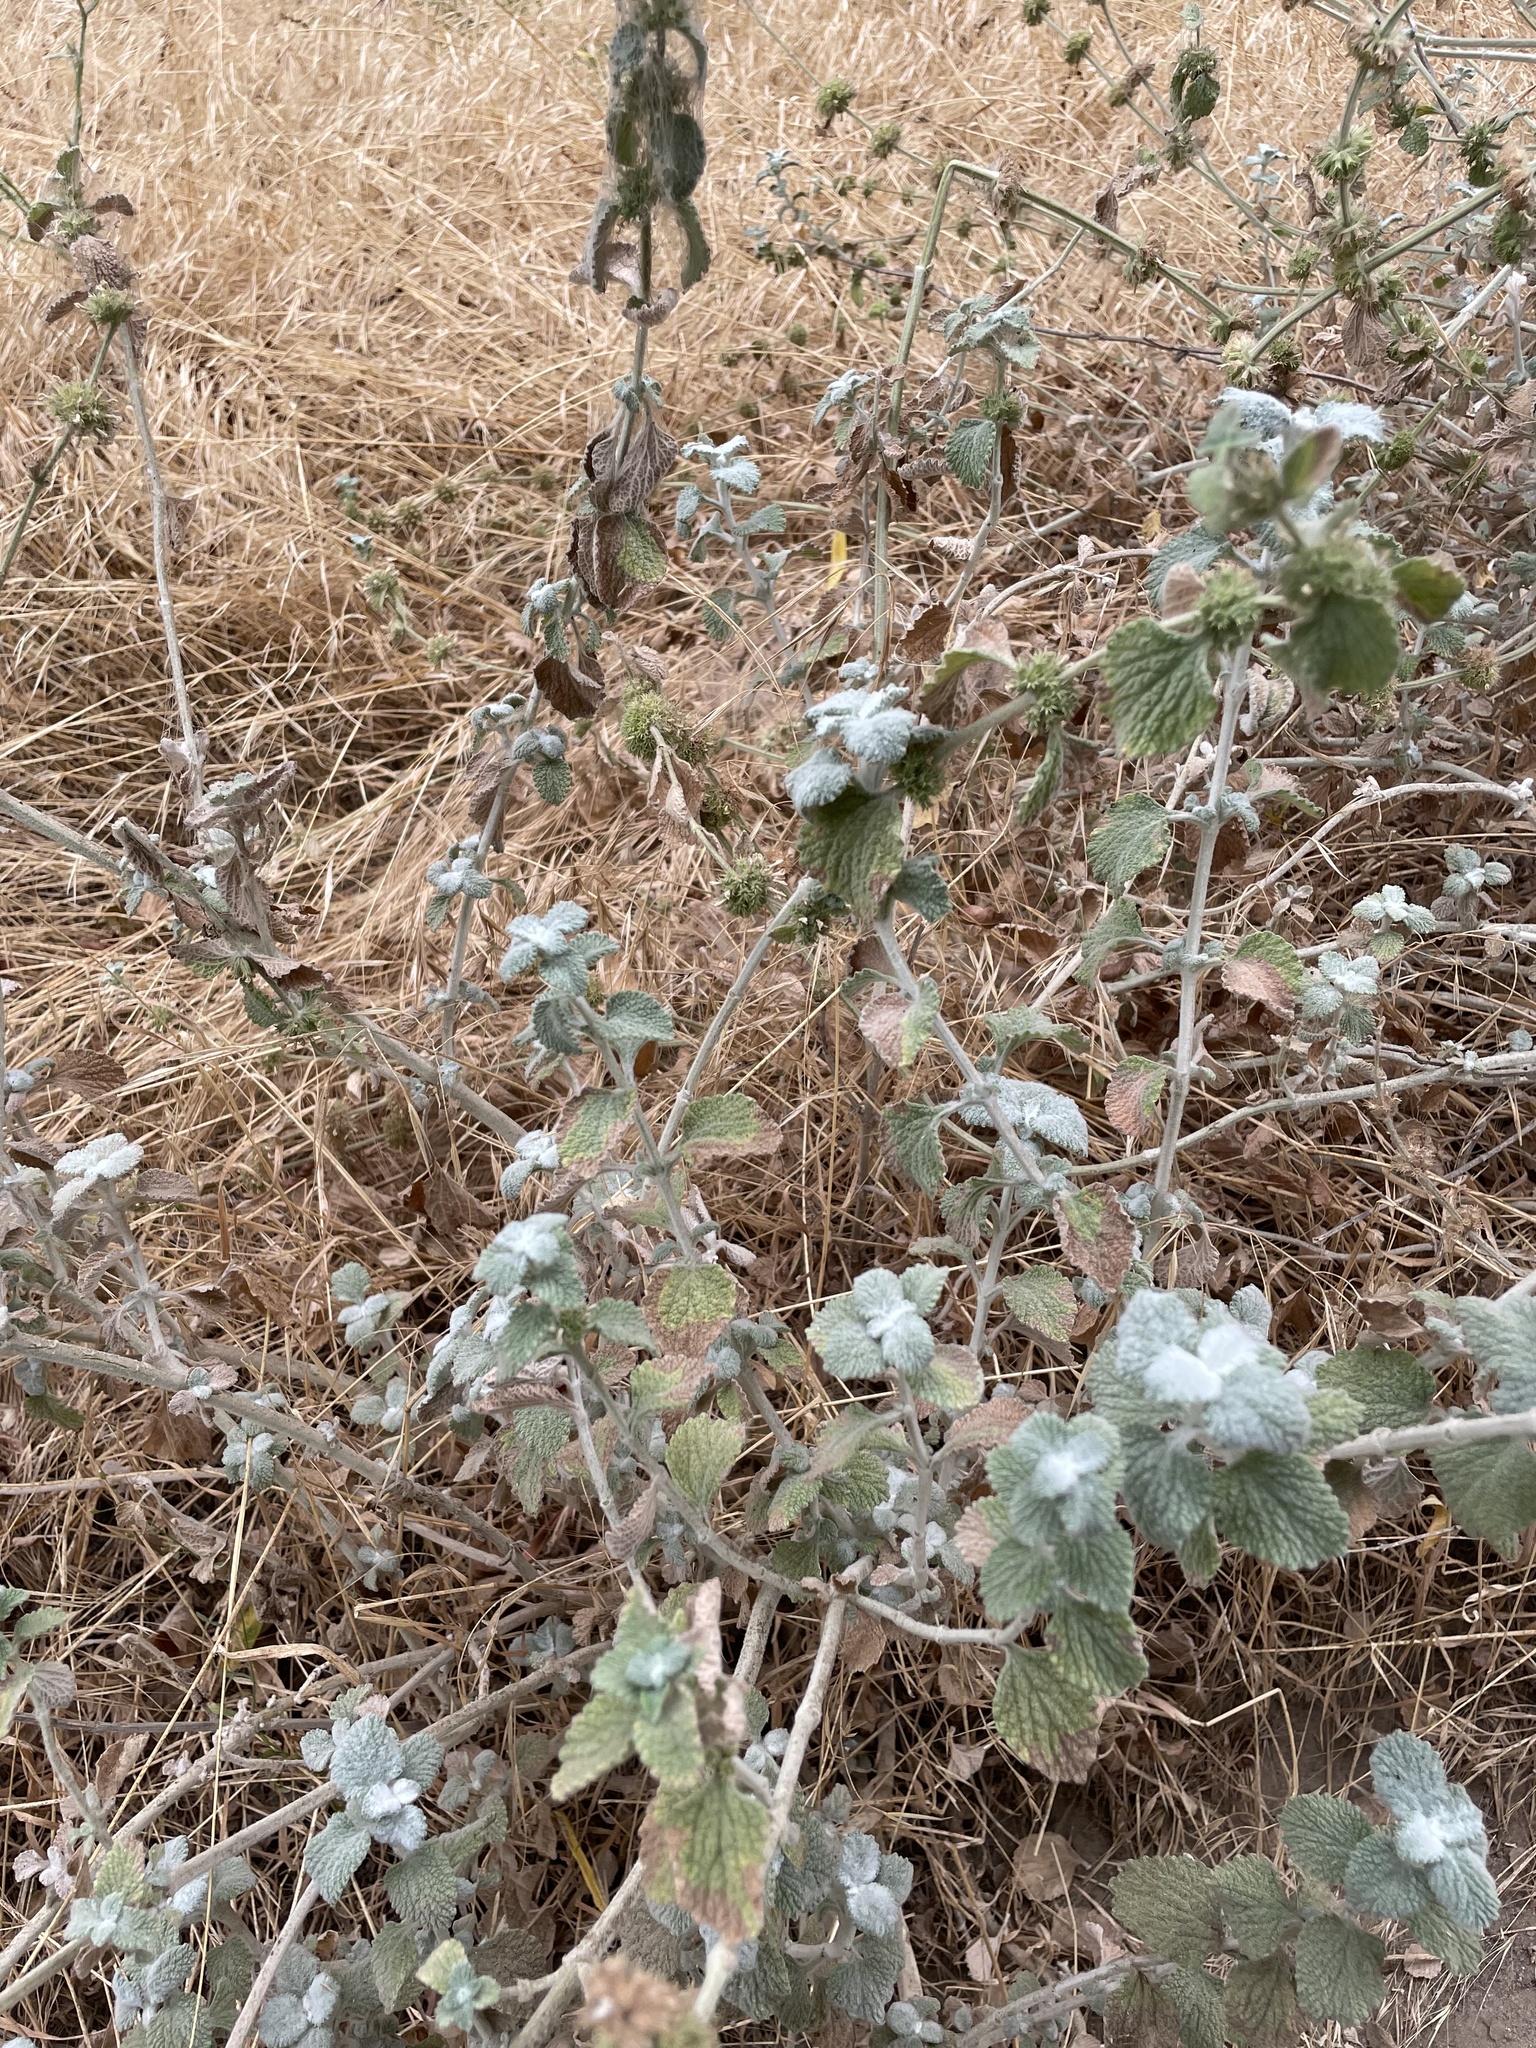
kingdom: Plantae
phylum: Tracheophyta
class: Magnoliopsida
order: Lamiales
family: Lamiaceae
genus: Marrubium
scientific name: Marrubium vulgare
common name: Horehound
